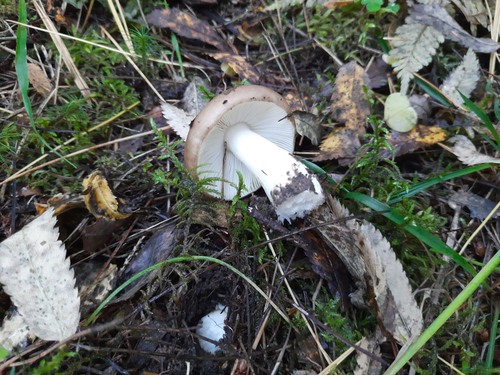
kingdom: Fungi
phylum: Basidiomycota
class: Agaricomycetes
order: Russulales
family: Russulaceae
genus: Russula
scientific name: Russula
